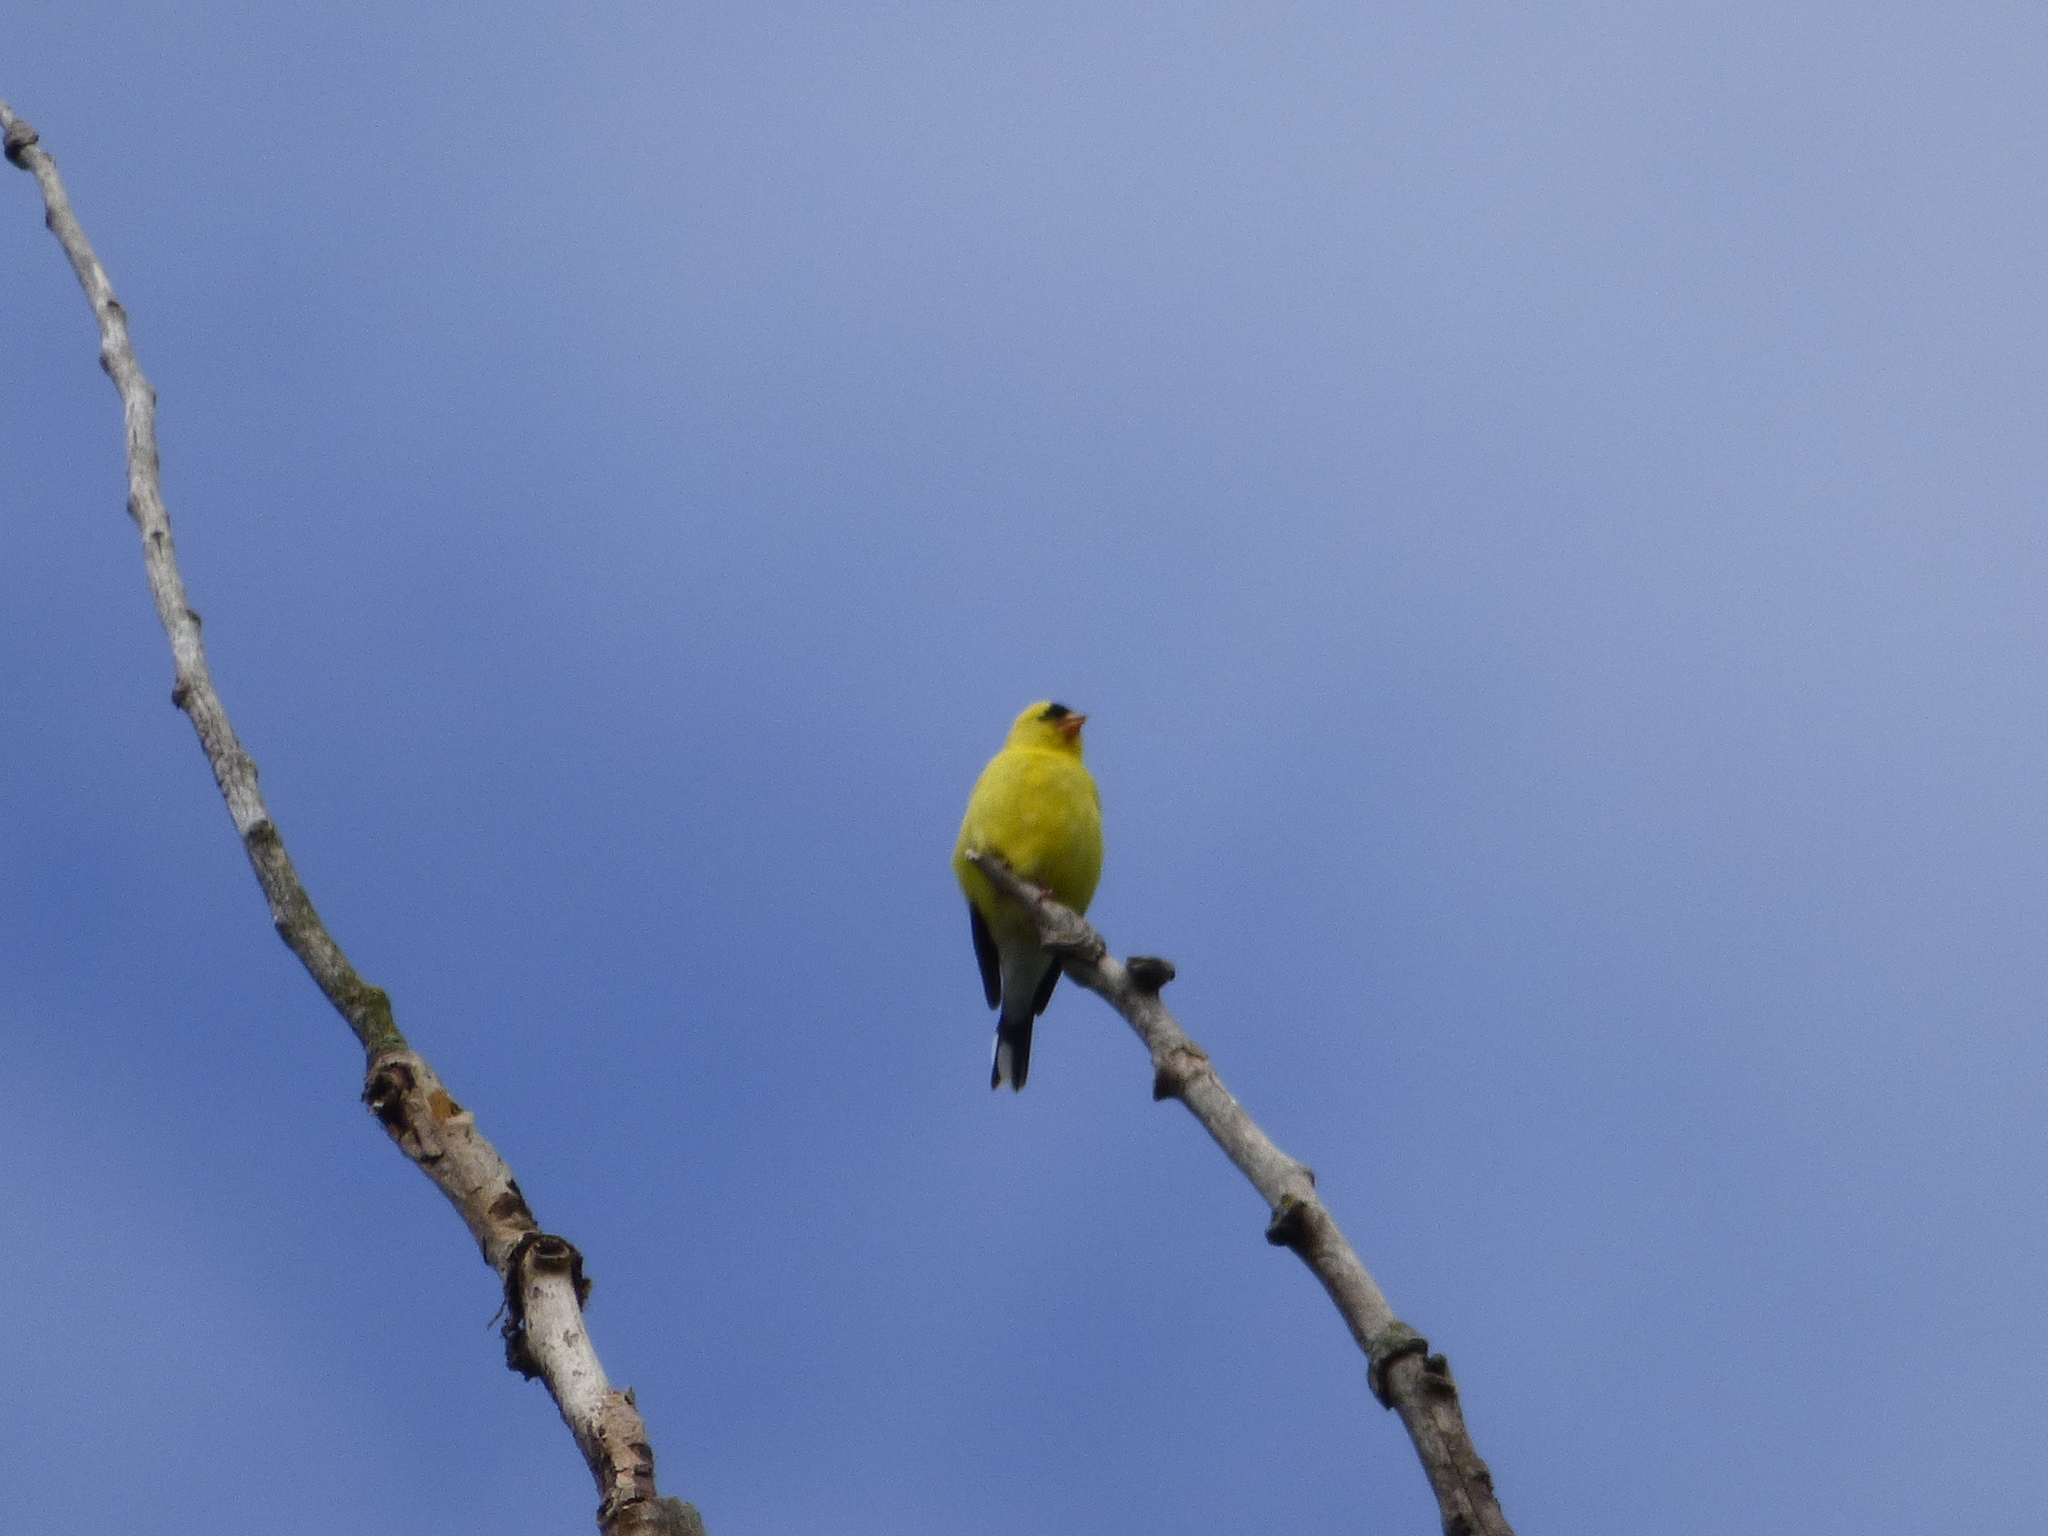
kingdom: Animalia
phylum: Chordata
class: Aves
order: Passeriformes
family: Fringillidae
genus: Spinus
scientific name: Spinus tristis
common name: American goldfinch
